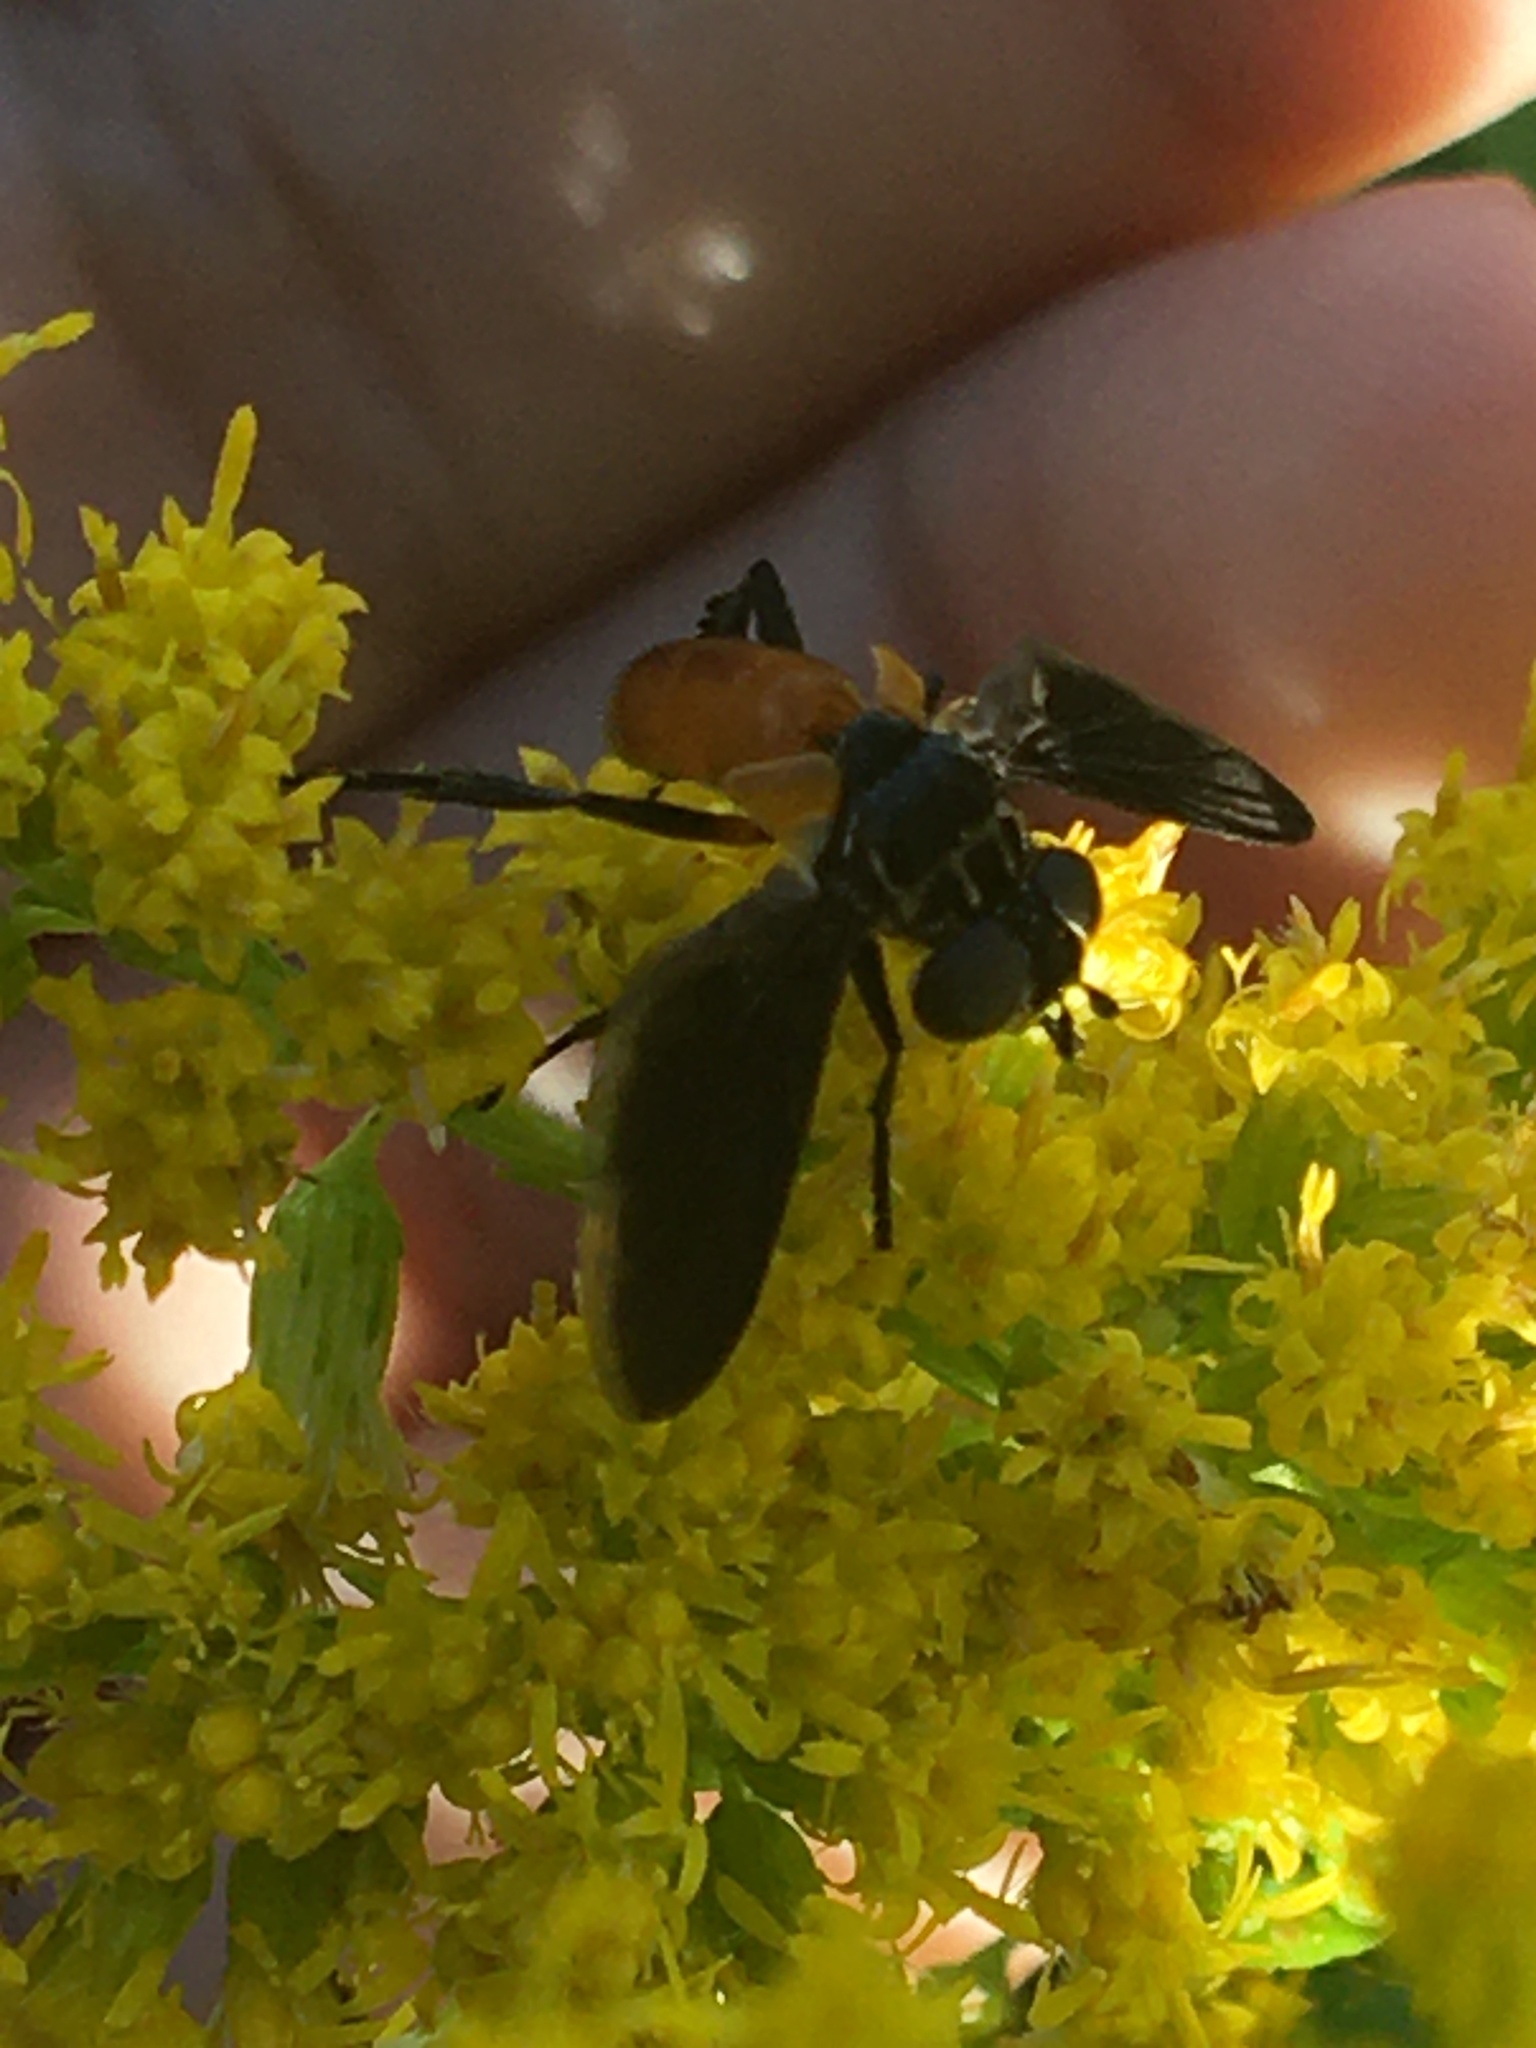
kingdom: Animalia
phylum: Arthropoda
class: Insecta
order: Diptera
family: Tachinidae
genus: Trichopoda
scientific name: Trichopoda pennipes
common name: Tachinid fly
